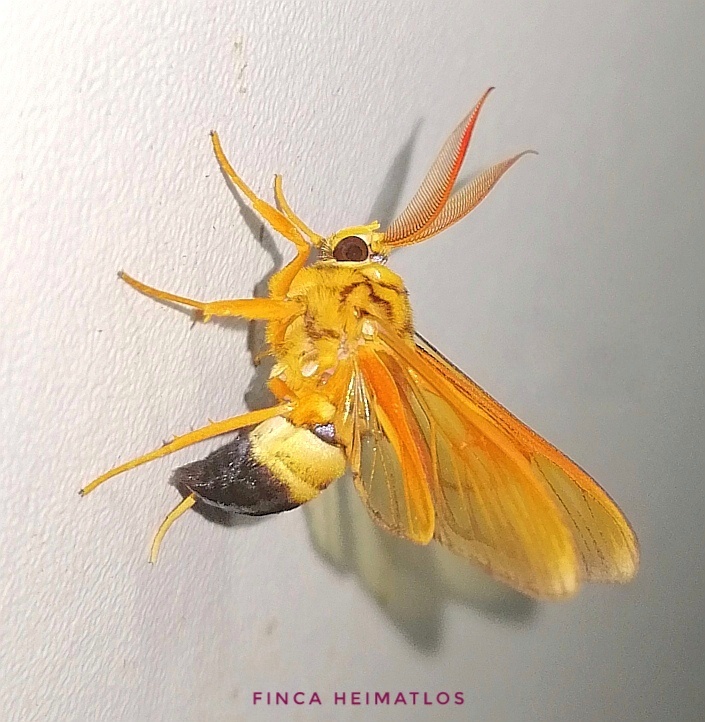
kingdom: Animalia
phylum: Arthropoda
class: Insecta
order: Lepidoptera
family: Erebidae
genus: Sarosa
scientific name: Sarosa acutior
